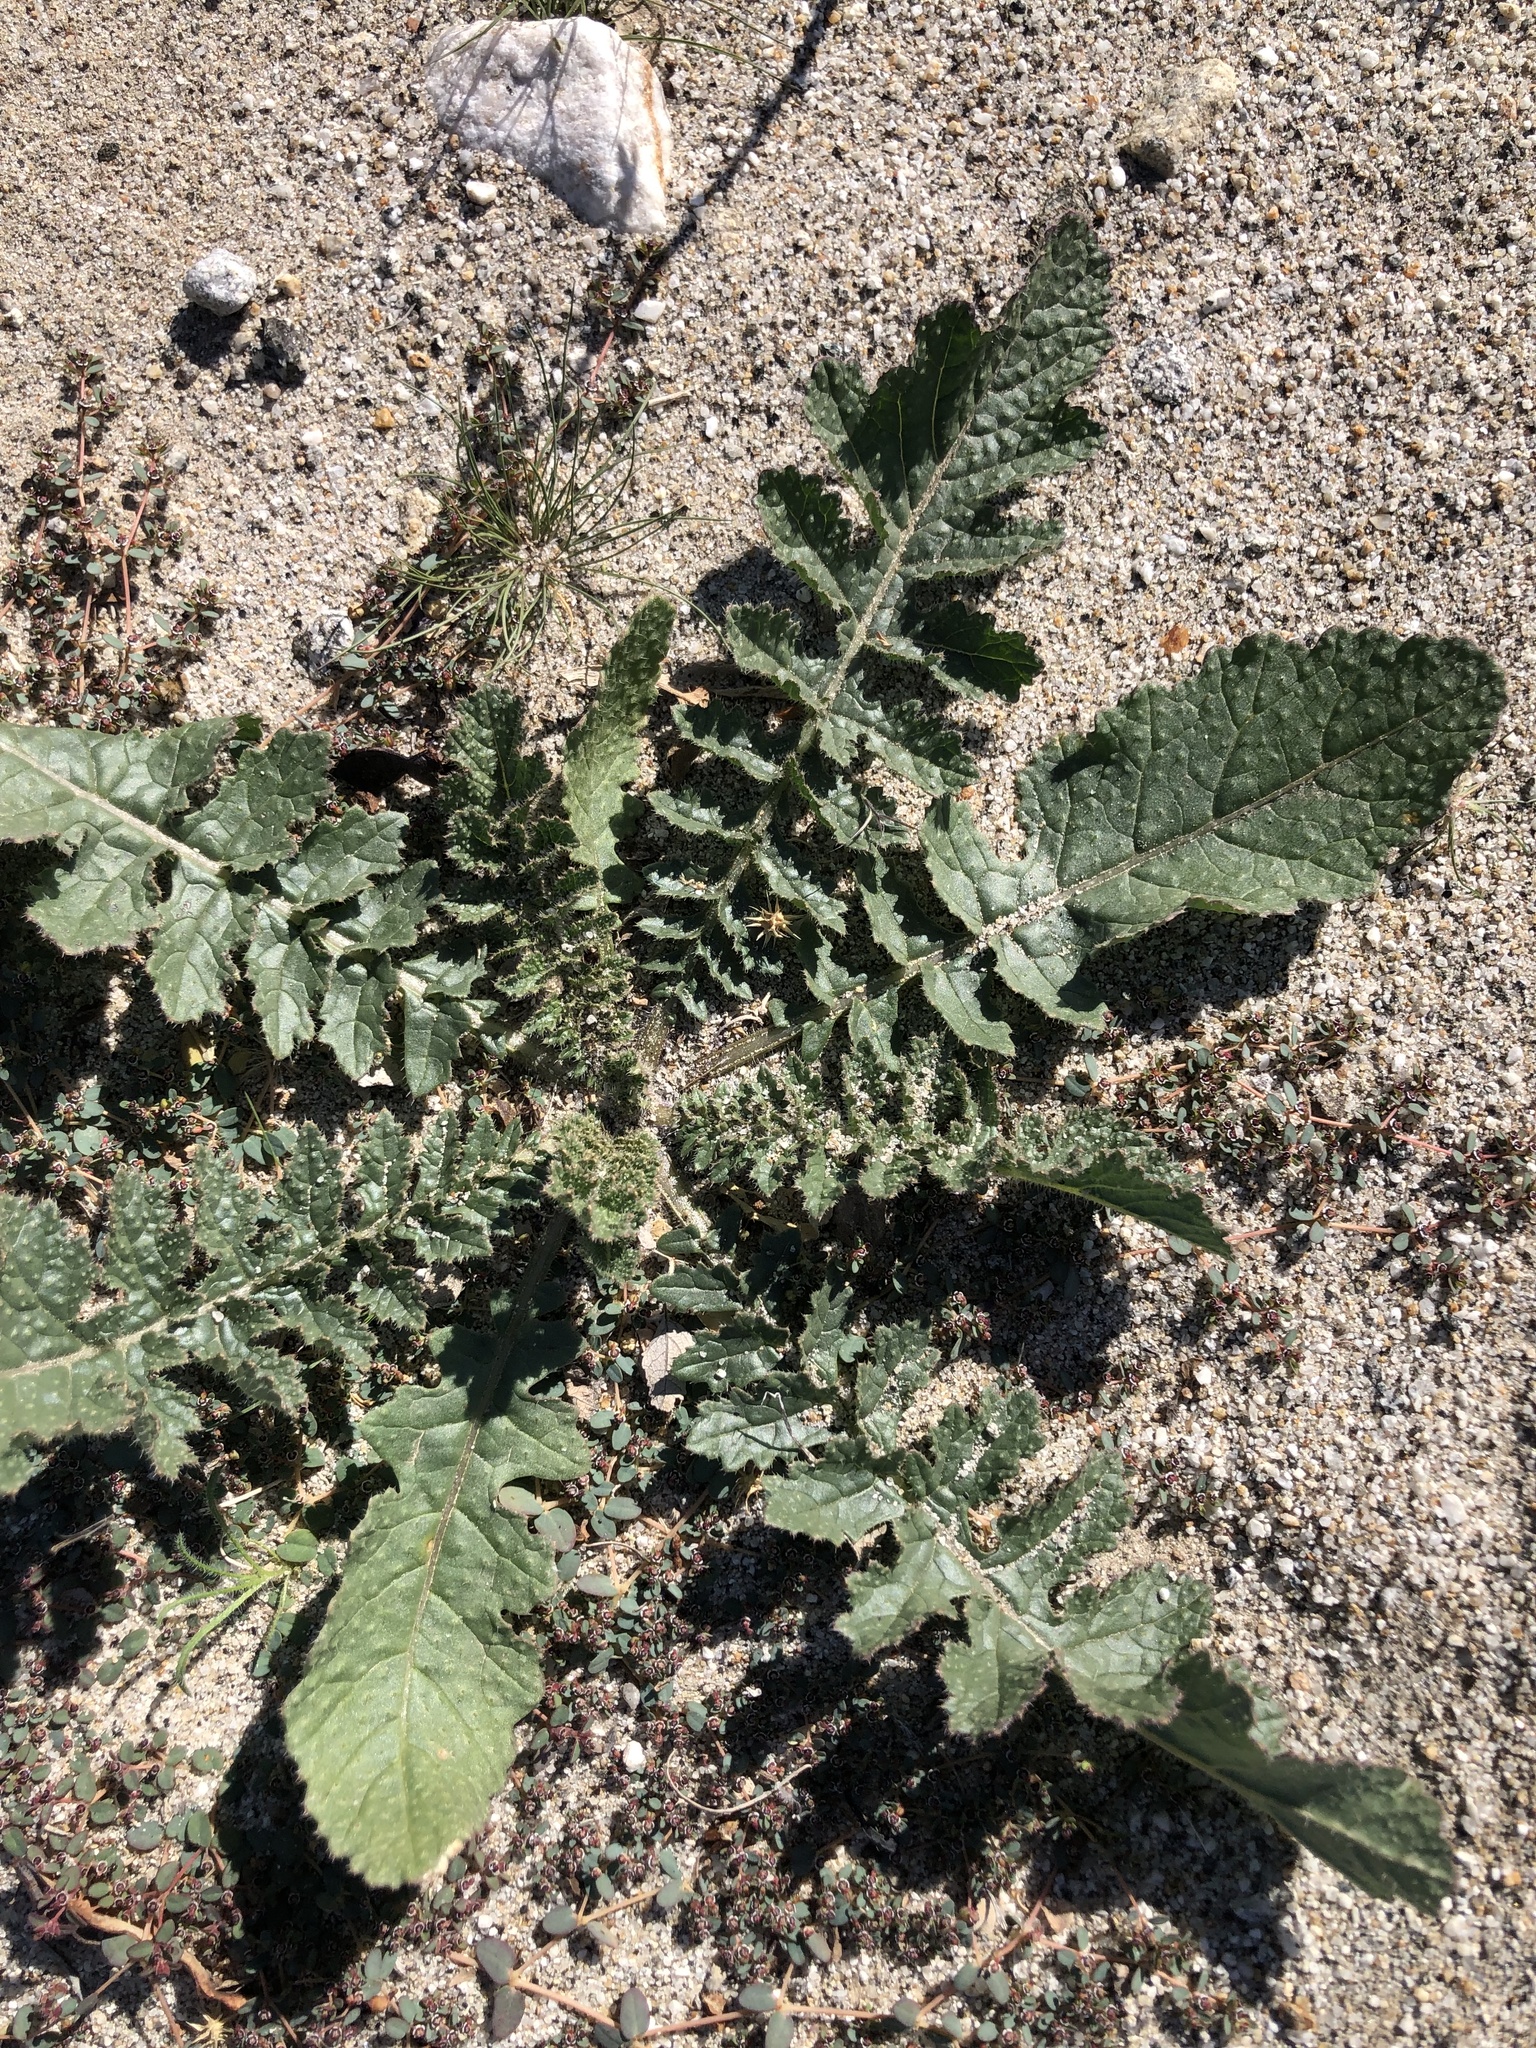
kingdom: Plantae
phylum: Tracheophyta
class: Magnoliopsida
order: Brassicales
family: Brassicaceae
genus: Brassica
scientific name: Brassica tournefortii
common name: Pale cabbage
